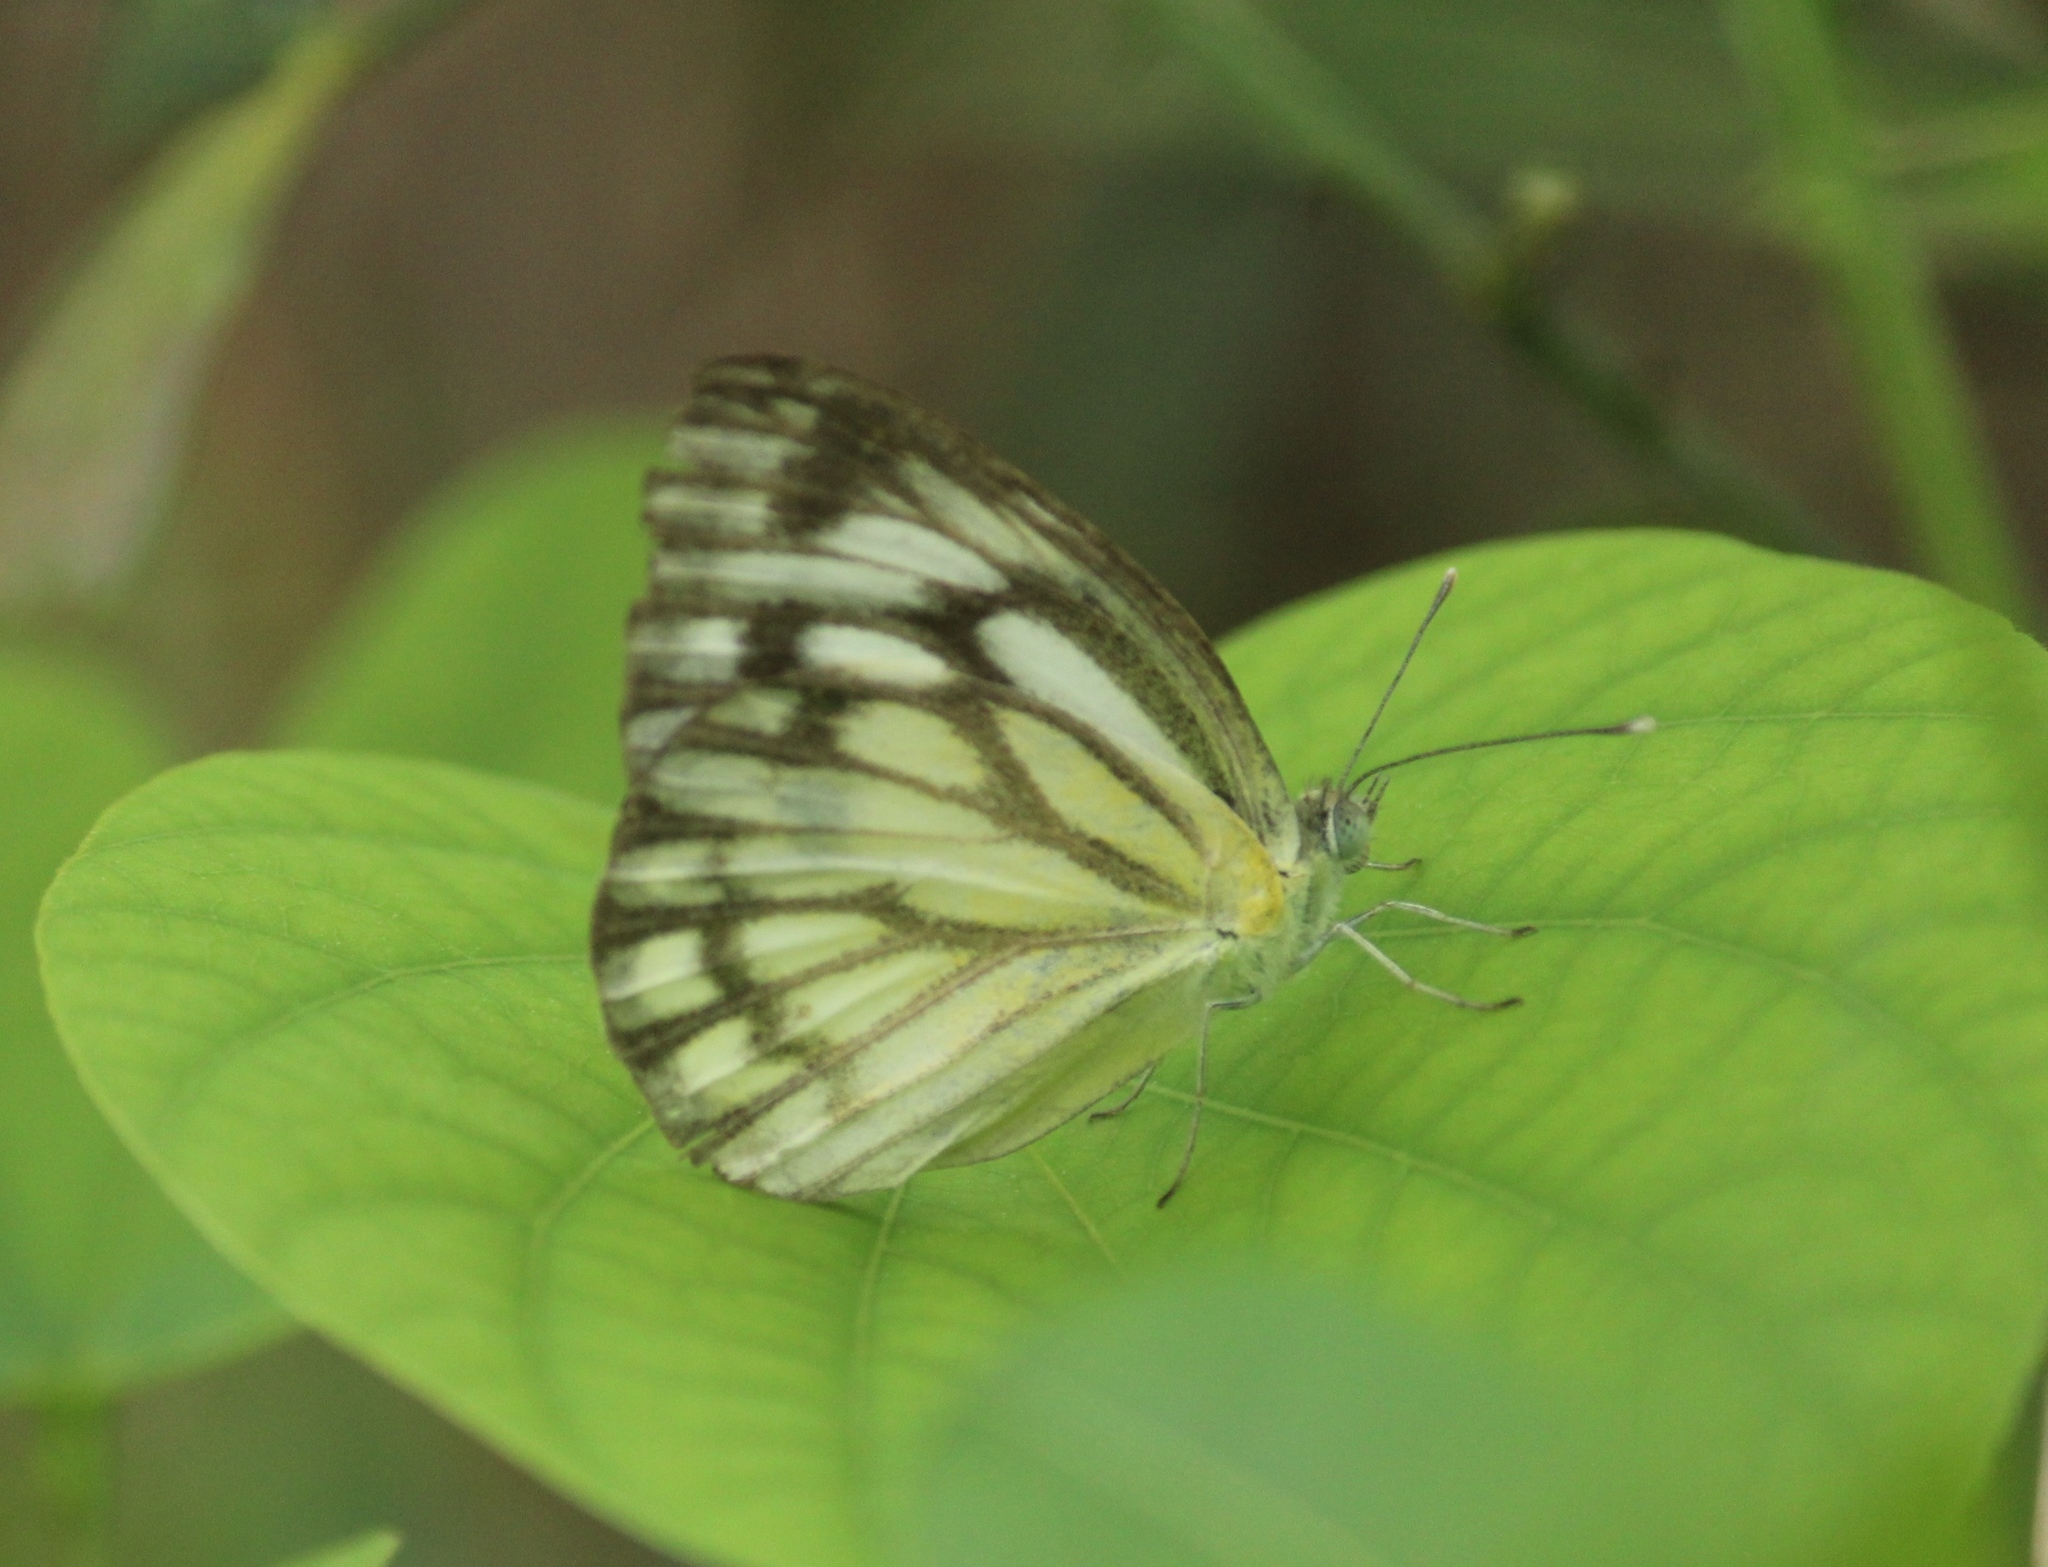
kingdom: Animalia
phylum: Arthropoda
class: Insecta
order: Lepidoptera
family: Pieridae
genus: Cepora
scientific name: Cepora nerissa
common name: Common gull
